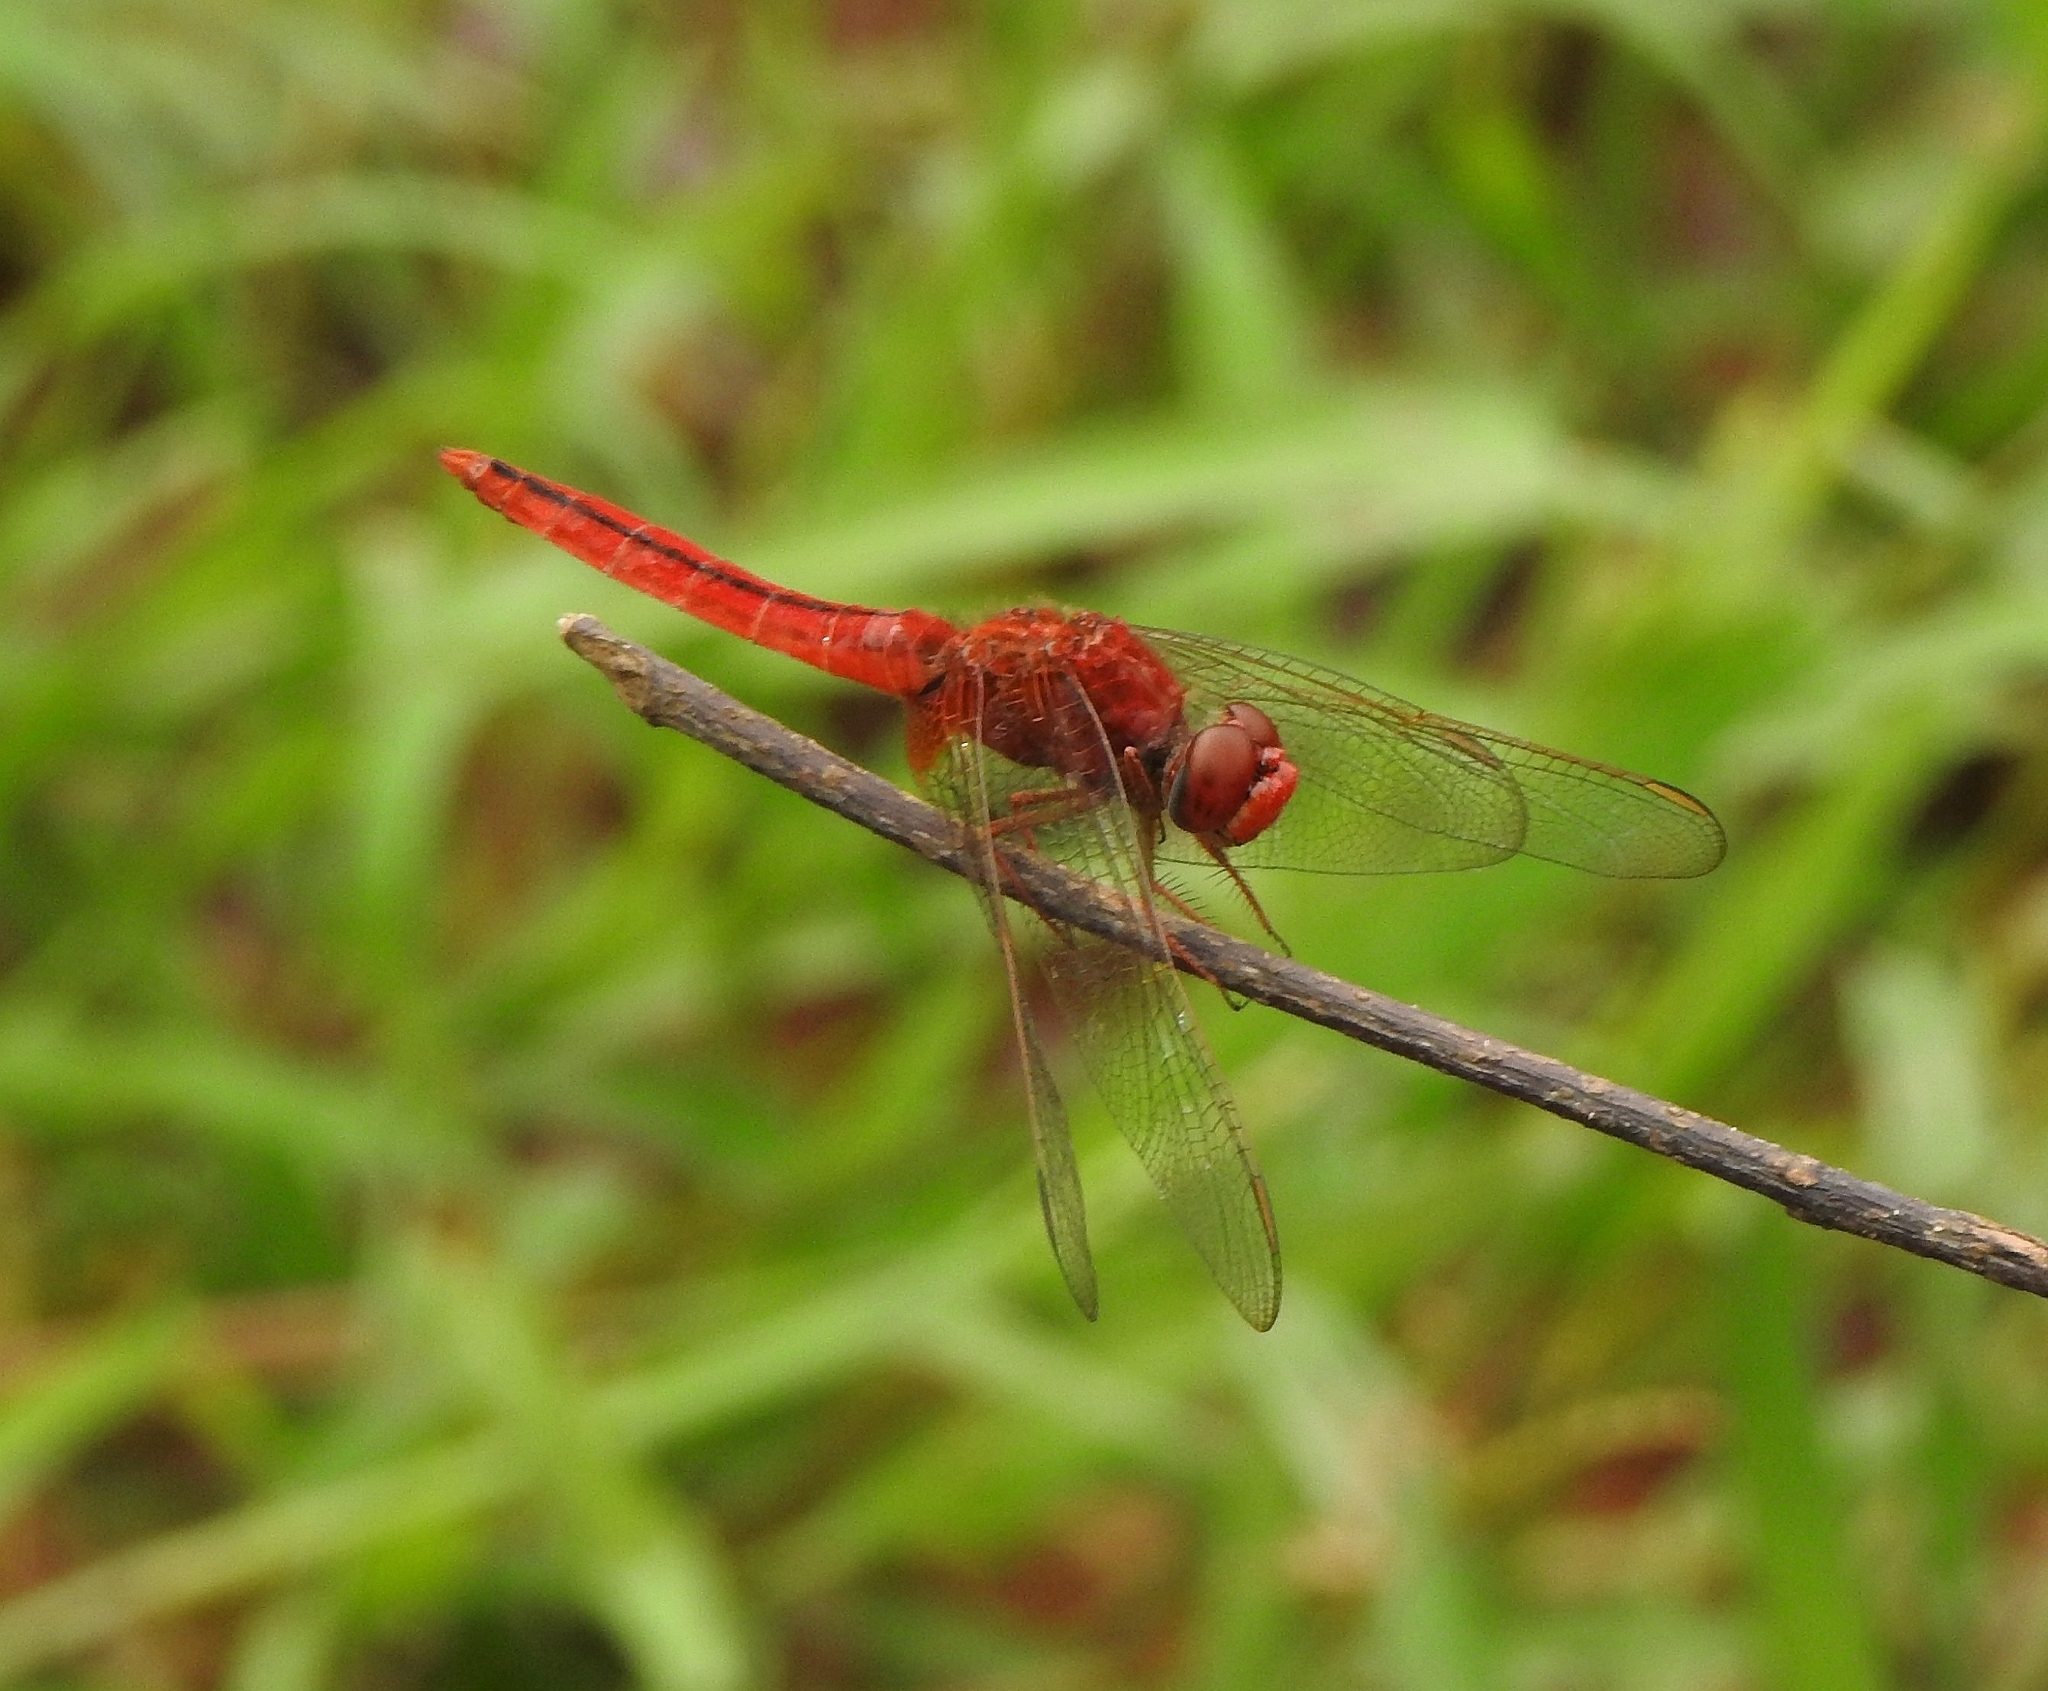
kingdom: Animalia
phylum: Arthropoda
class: Insecta
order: Odonata
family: Libellulidae
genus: Crocothemis
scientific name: Crocothemis servilia
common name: Scarlet skimmer
